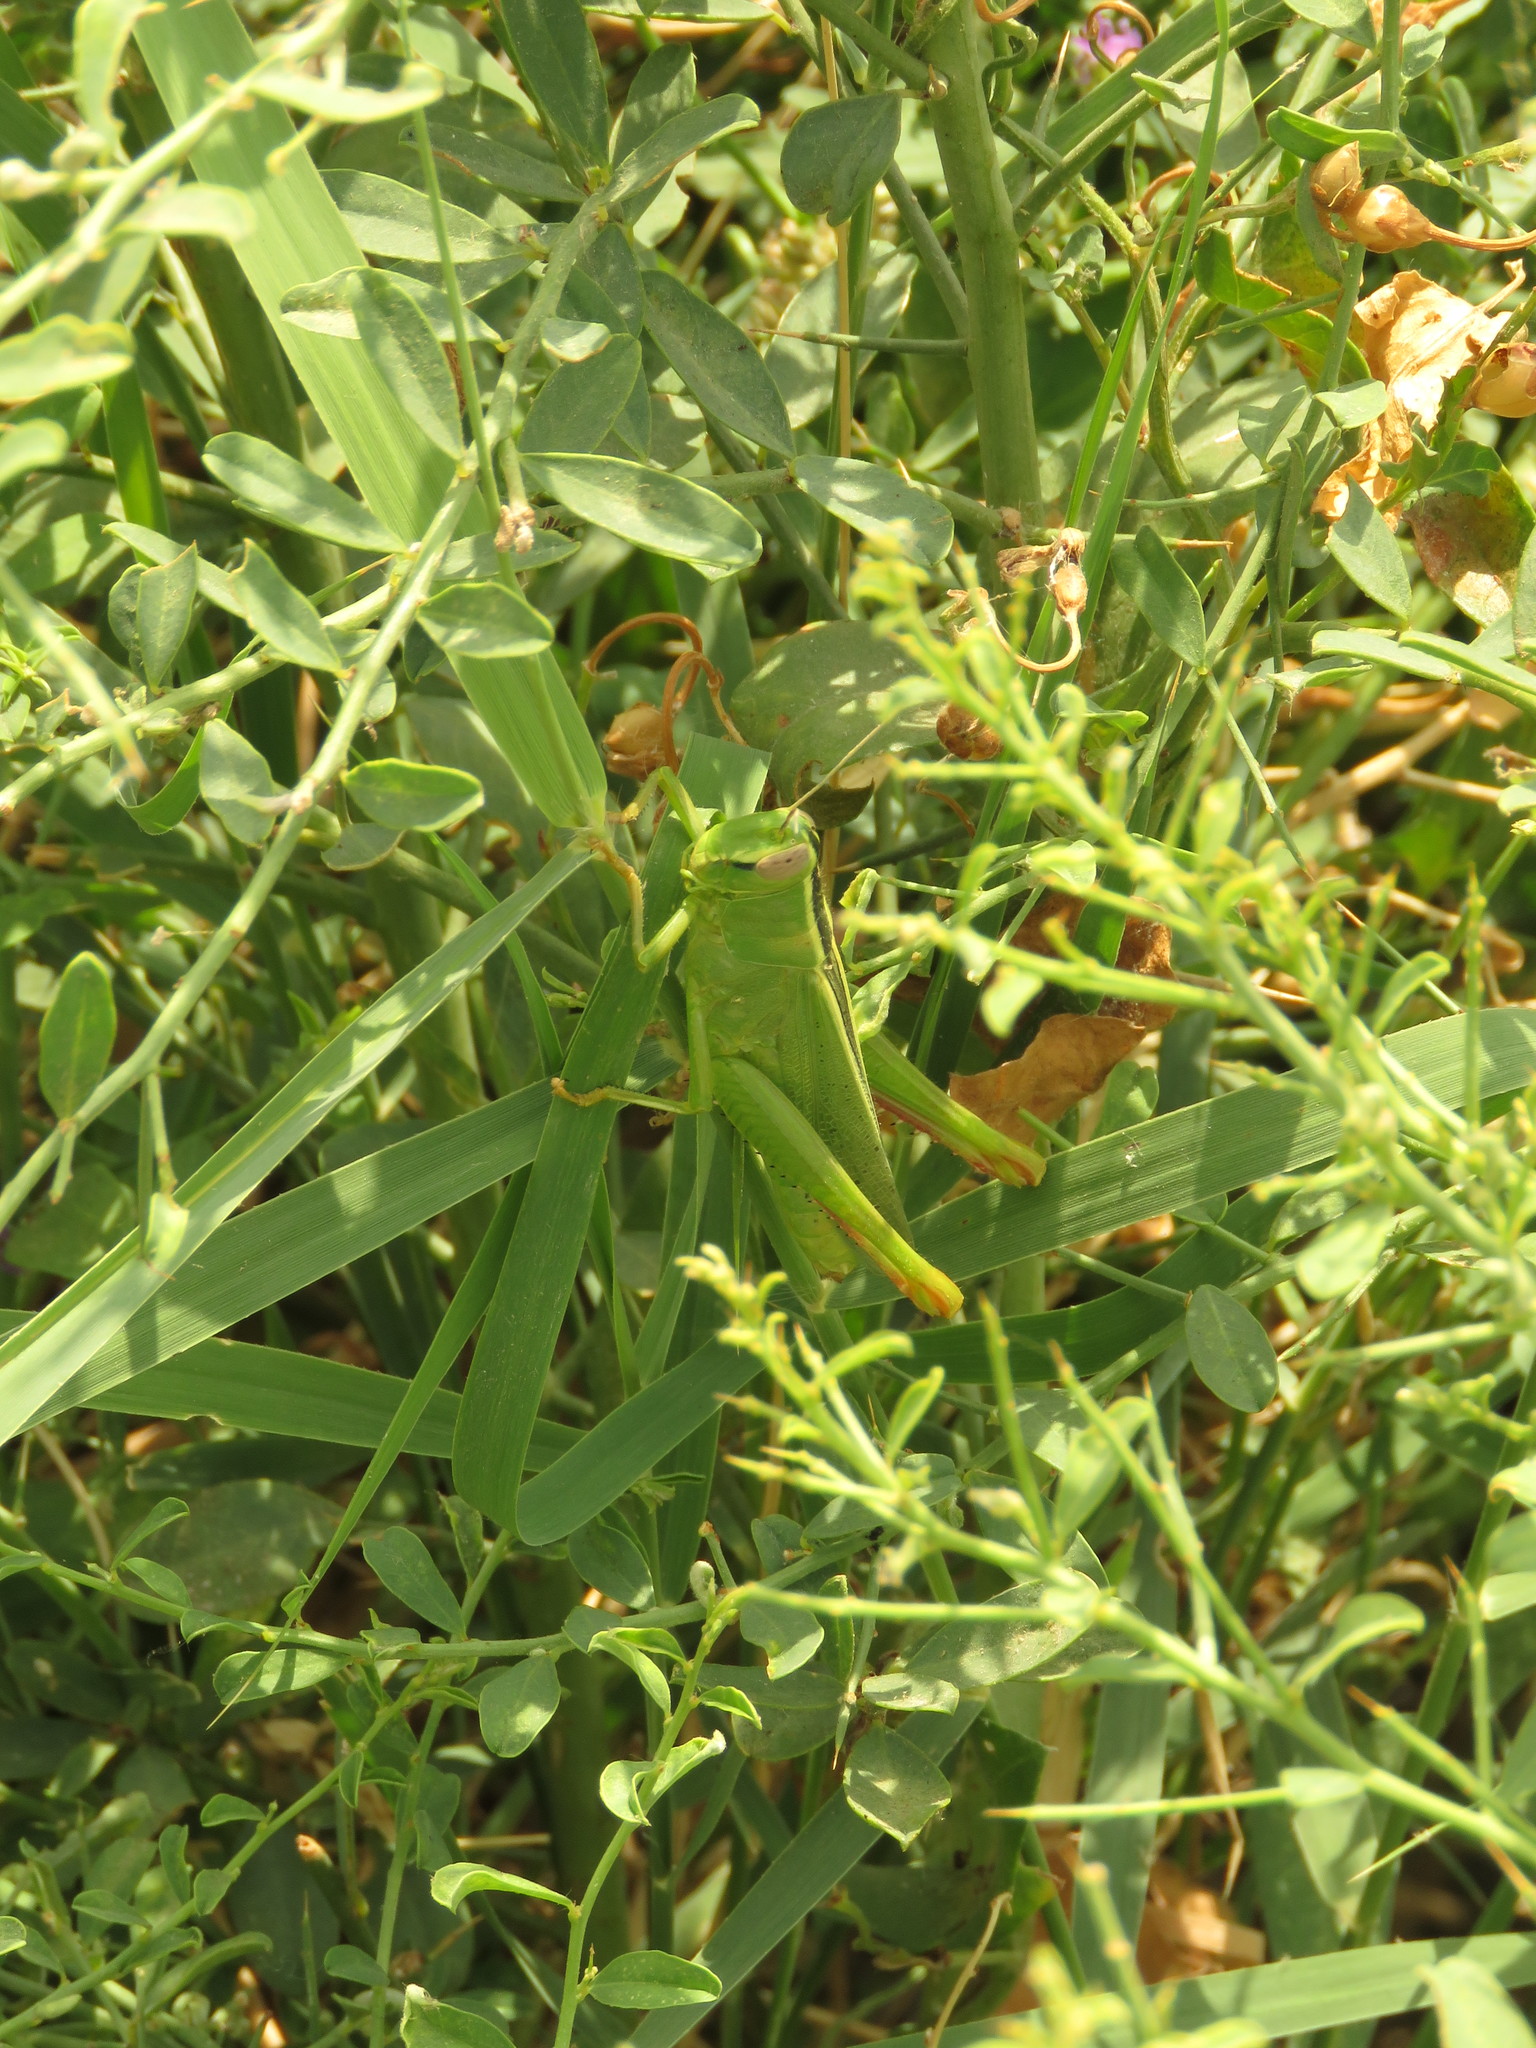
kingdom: Animalia
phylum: Arthropoda
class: Insecta
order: Orthoptera
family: Acrididae
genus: Heteracris
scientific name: Heteracris pterosticha
